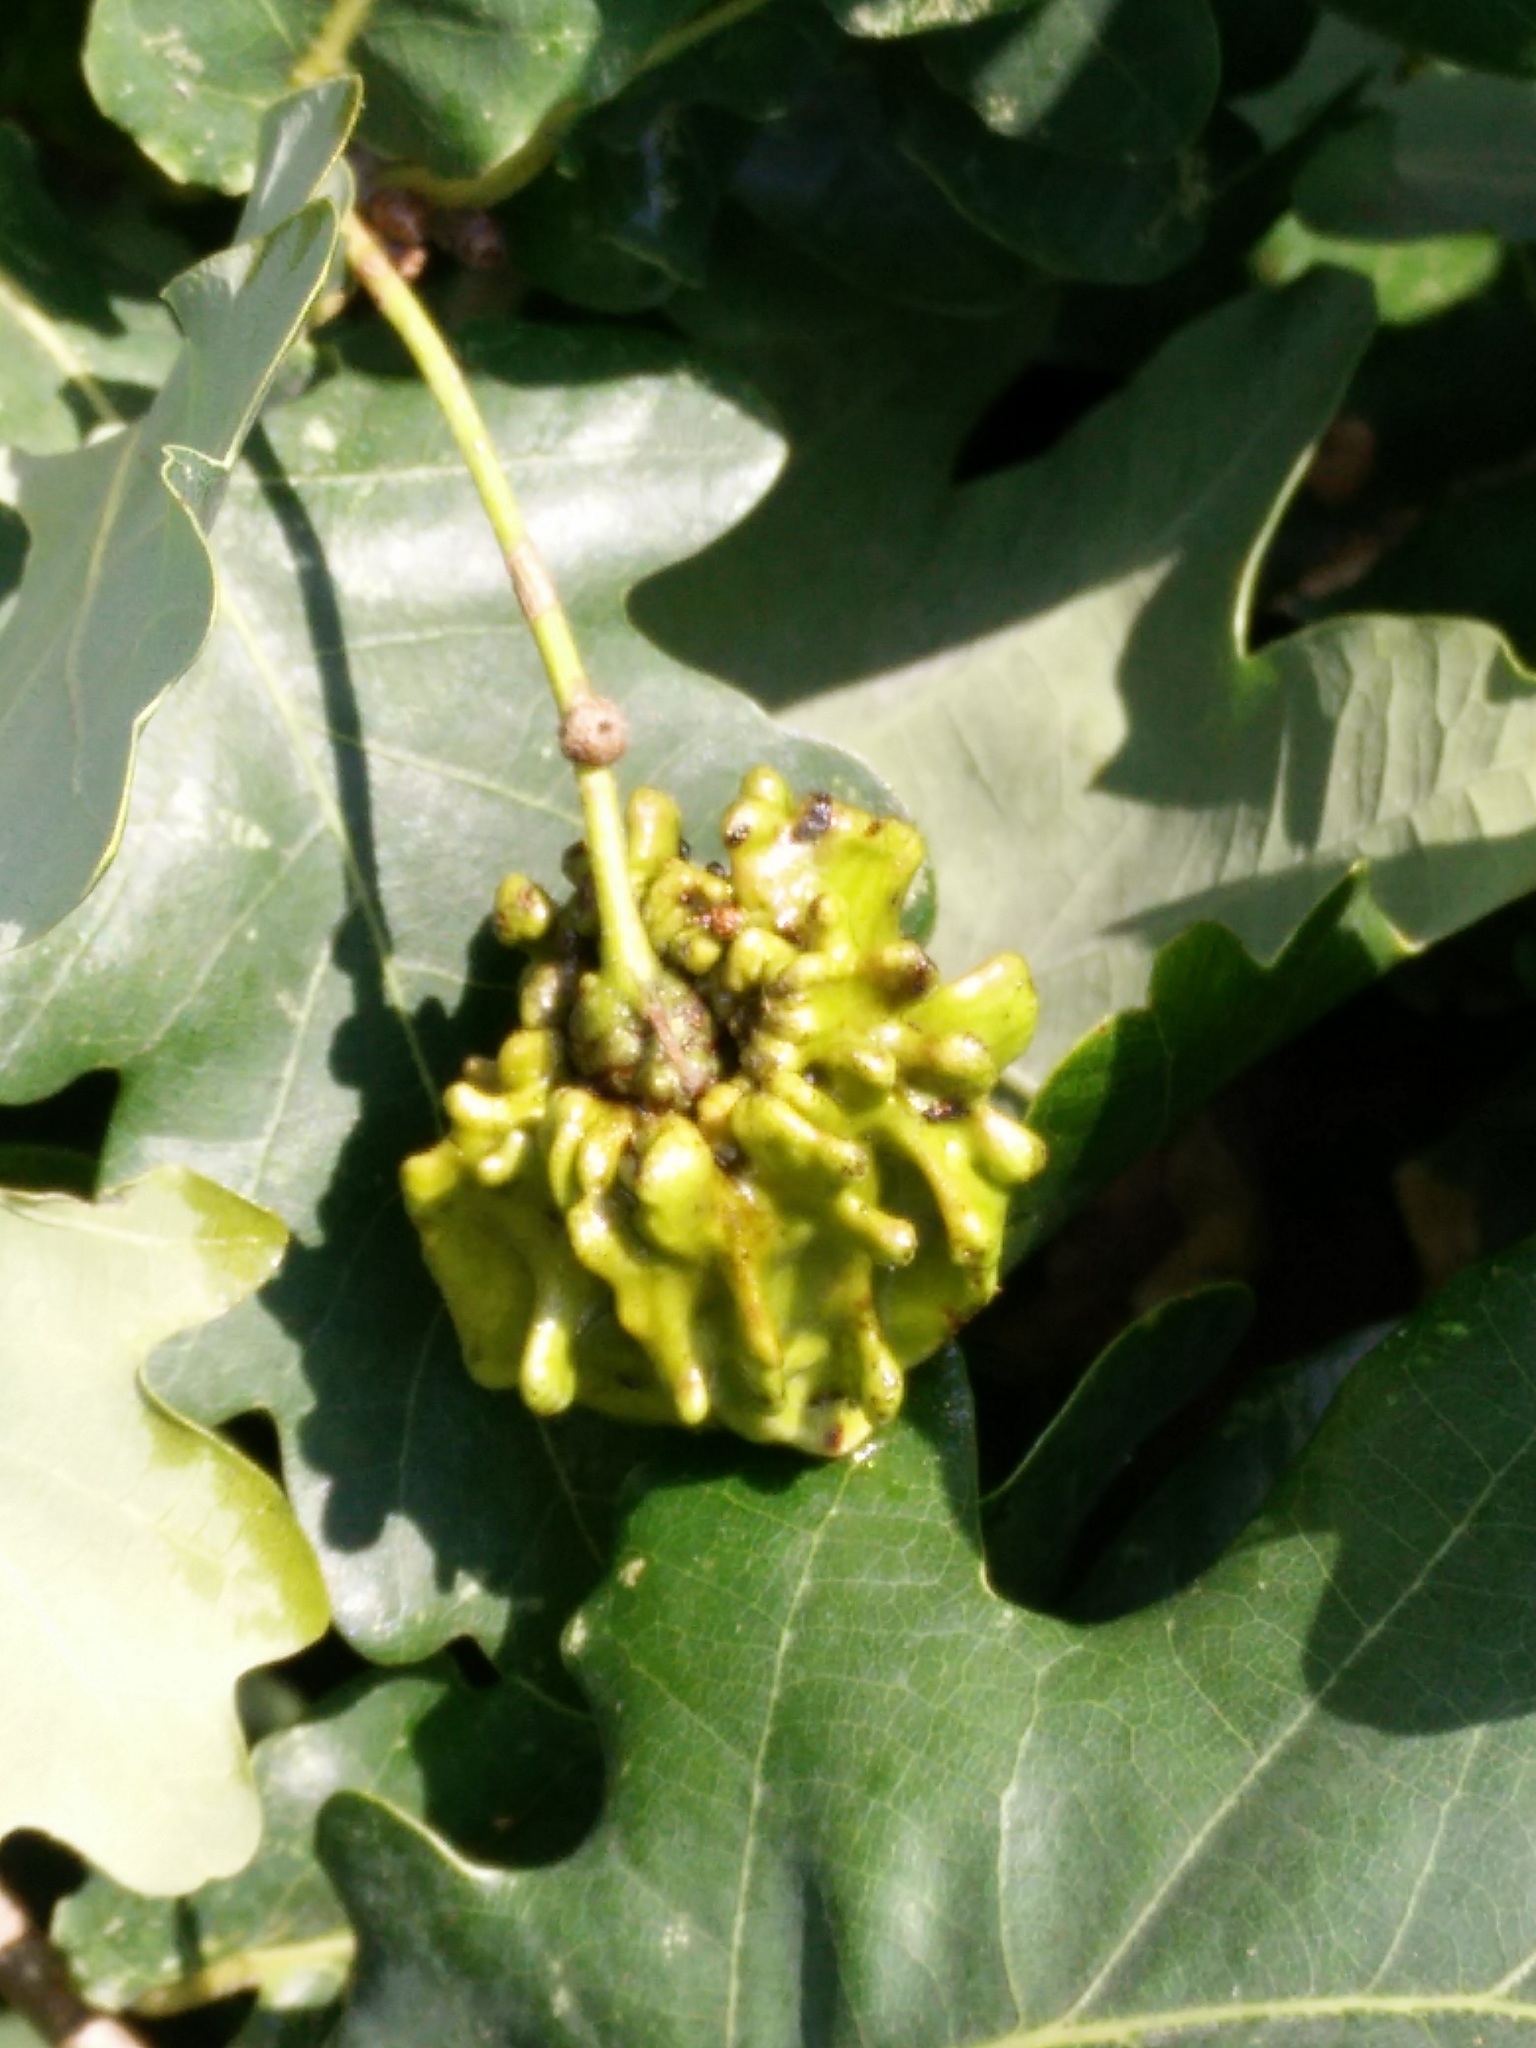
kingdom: Animalia
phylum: Arthropoda
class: Insecta
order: Hymenoptera
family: Cynipidae
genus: Andricus
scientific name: Andricus quercuscalicis
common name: Knopper gall
